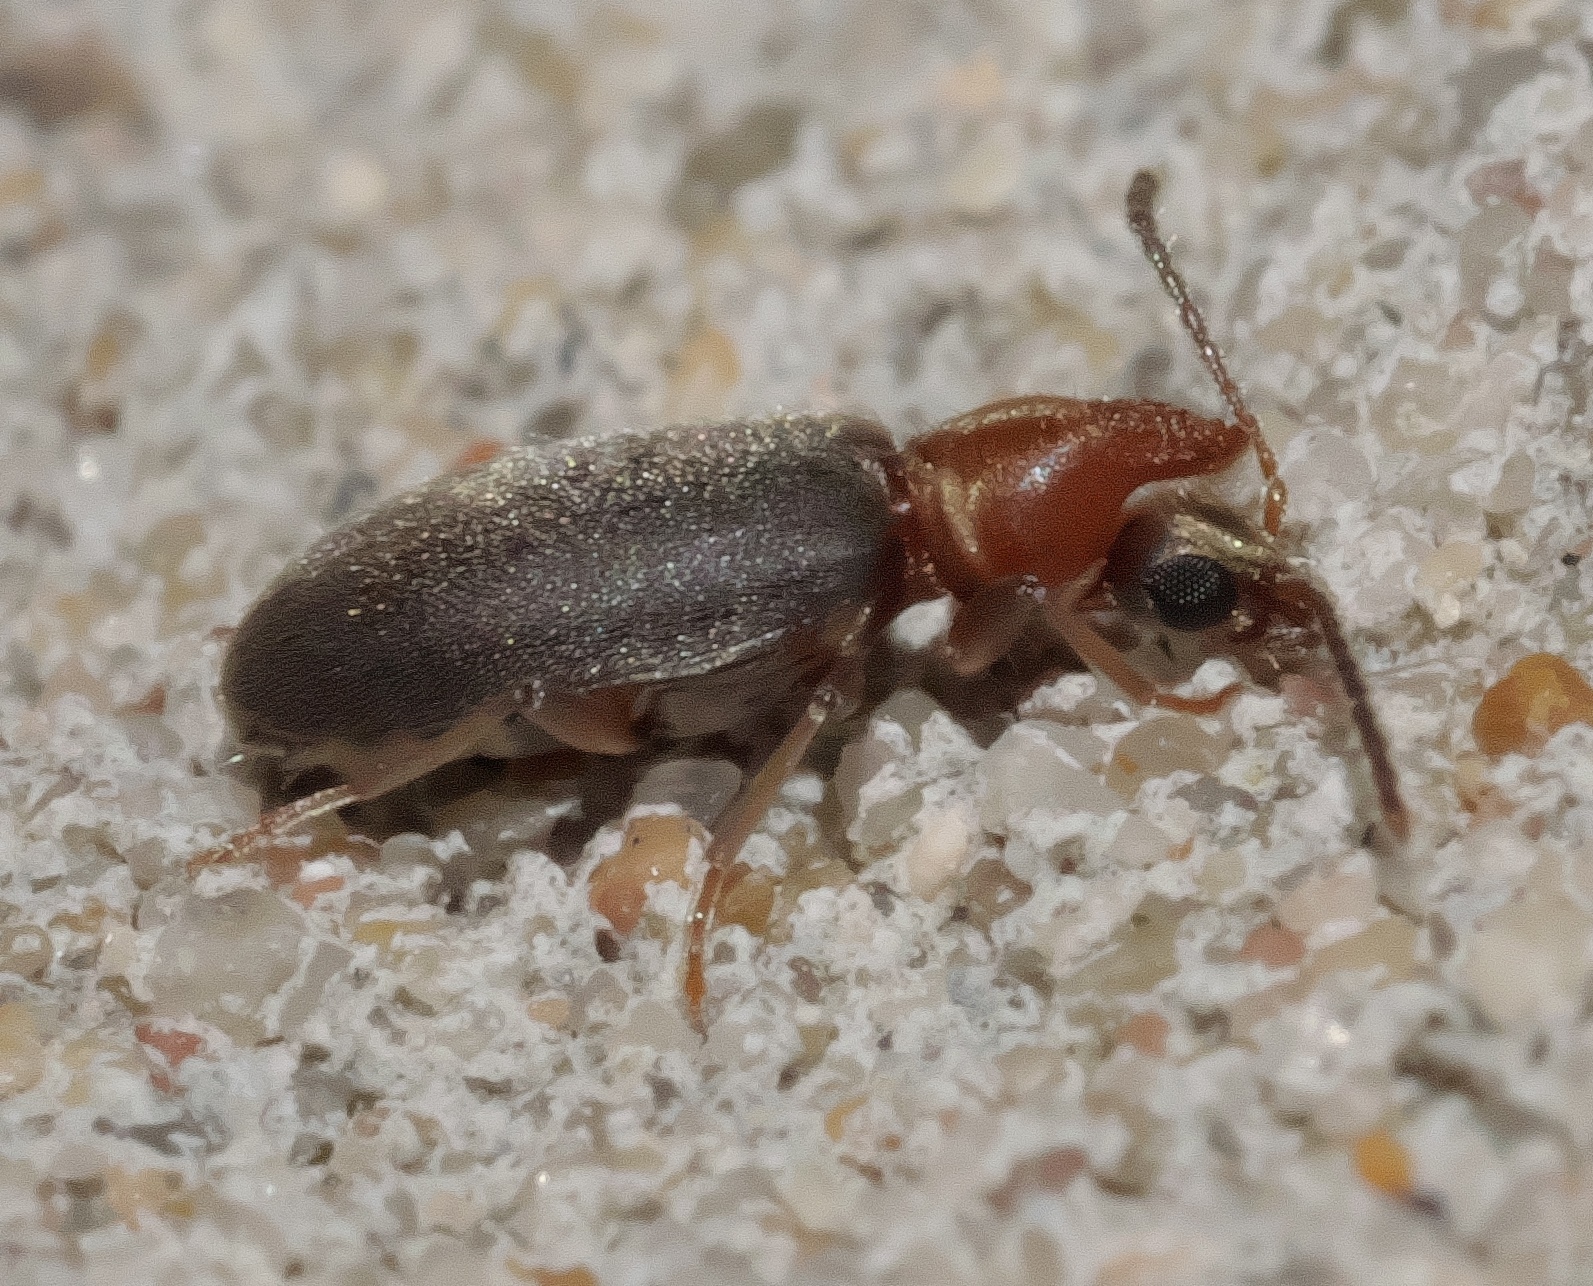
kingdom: Animalia
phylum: Arthropoda
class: Insecta
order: Coleoptera
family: Anthicidae
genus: Notoxus
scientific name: Notoxus murinipennis
